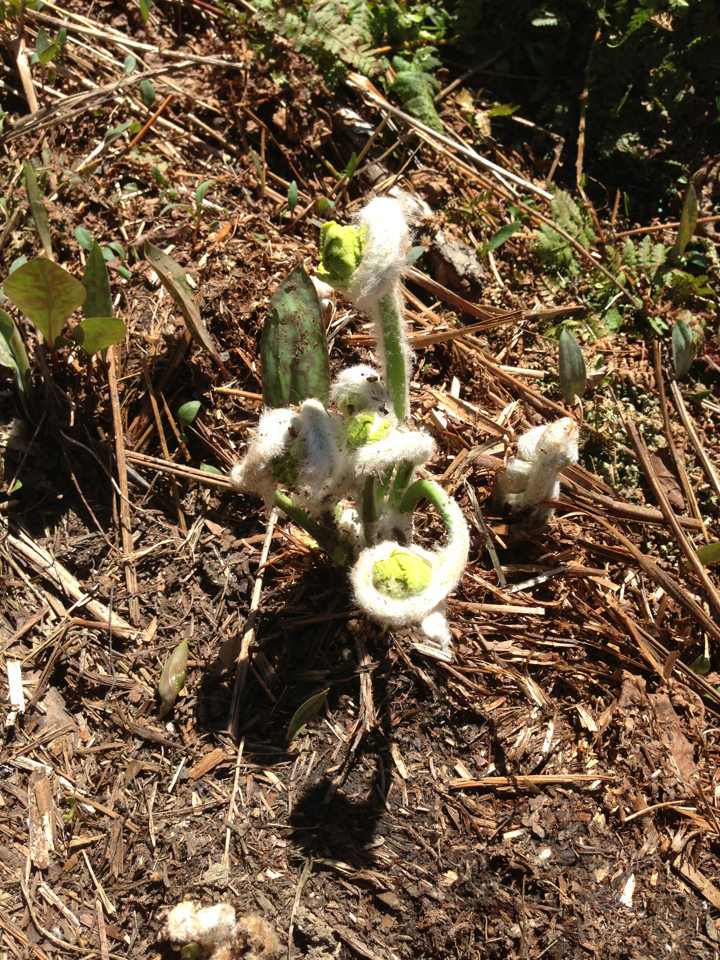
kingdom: Plantae
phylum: Tracheophyta
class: Polypodiopsida
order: Osmundales
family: Osmundaceae
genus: Osmundastrum
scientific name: Osmundastrum cinnamomeum
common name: Cinnamon fern
